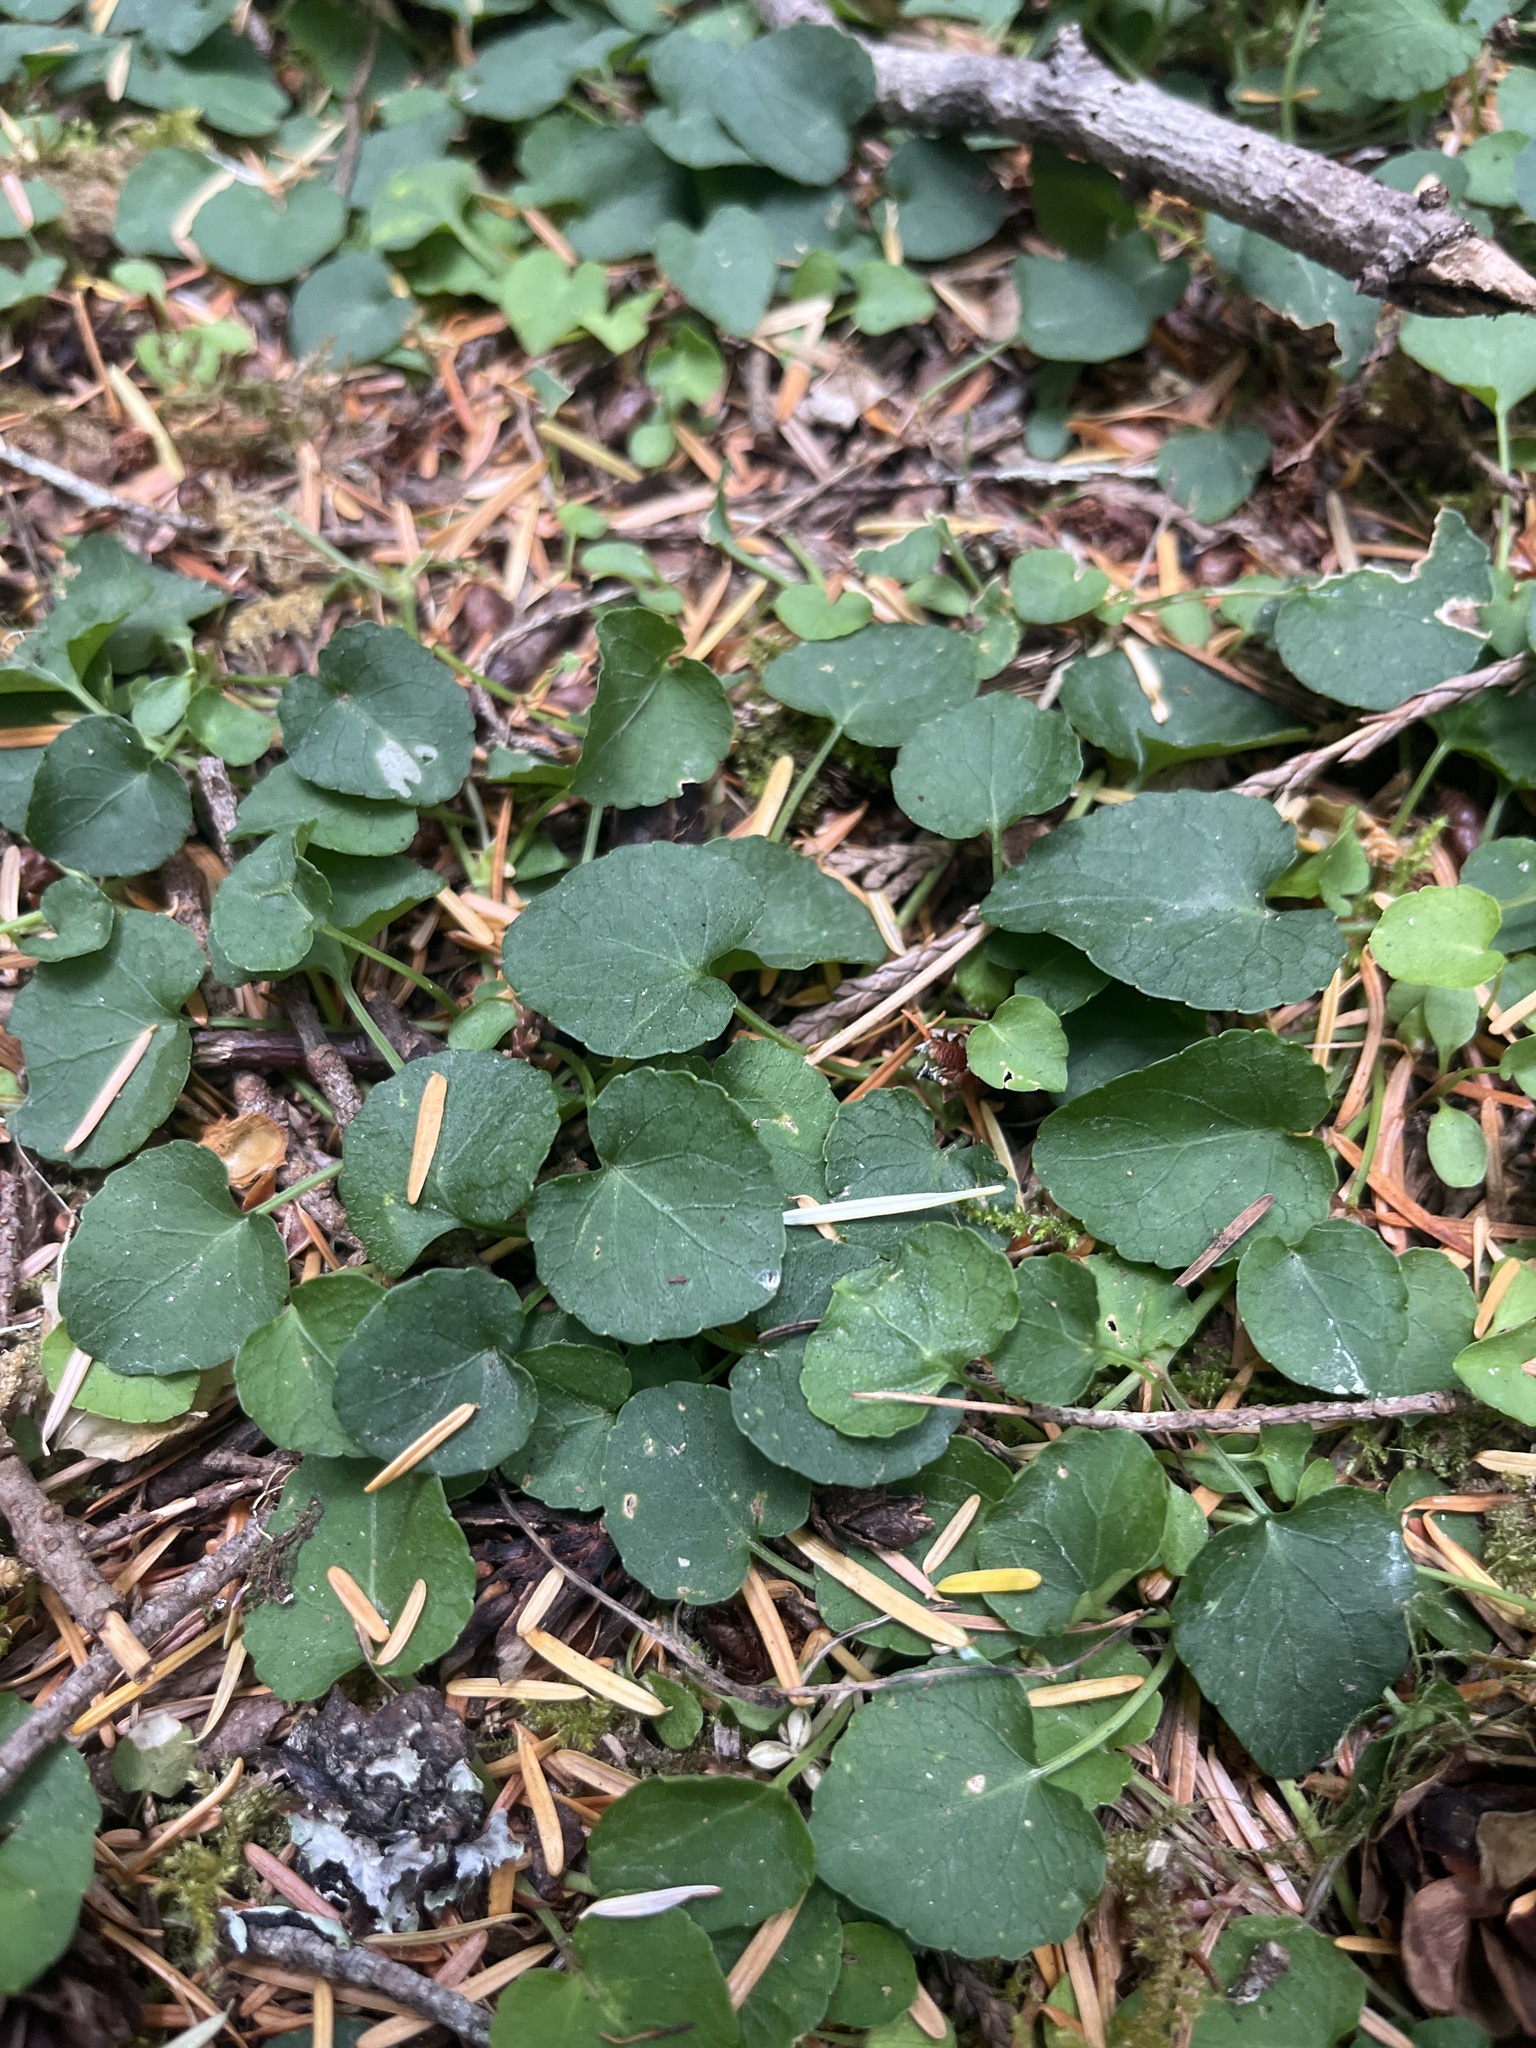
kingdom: Plantae
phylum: Tracheophyta
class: Magnoliopsida
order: Malpighiales
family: Violaceae
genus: Viola
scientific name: Viola sempervirens
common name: Evergreen violet
